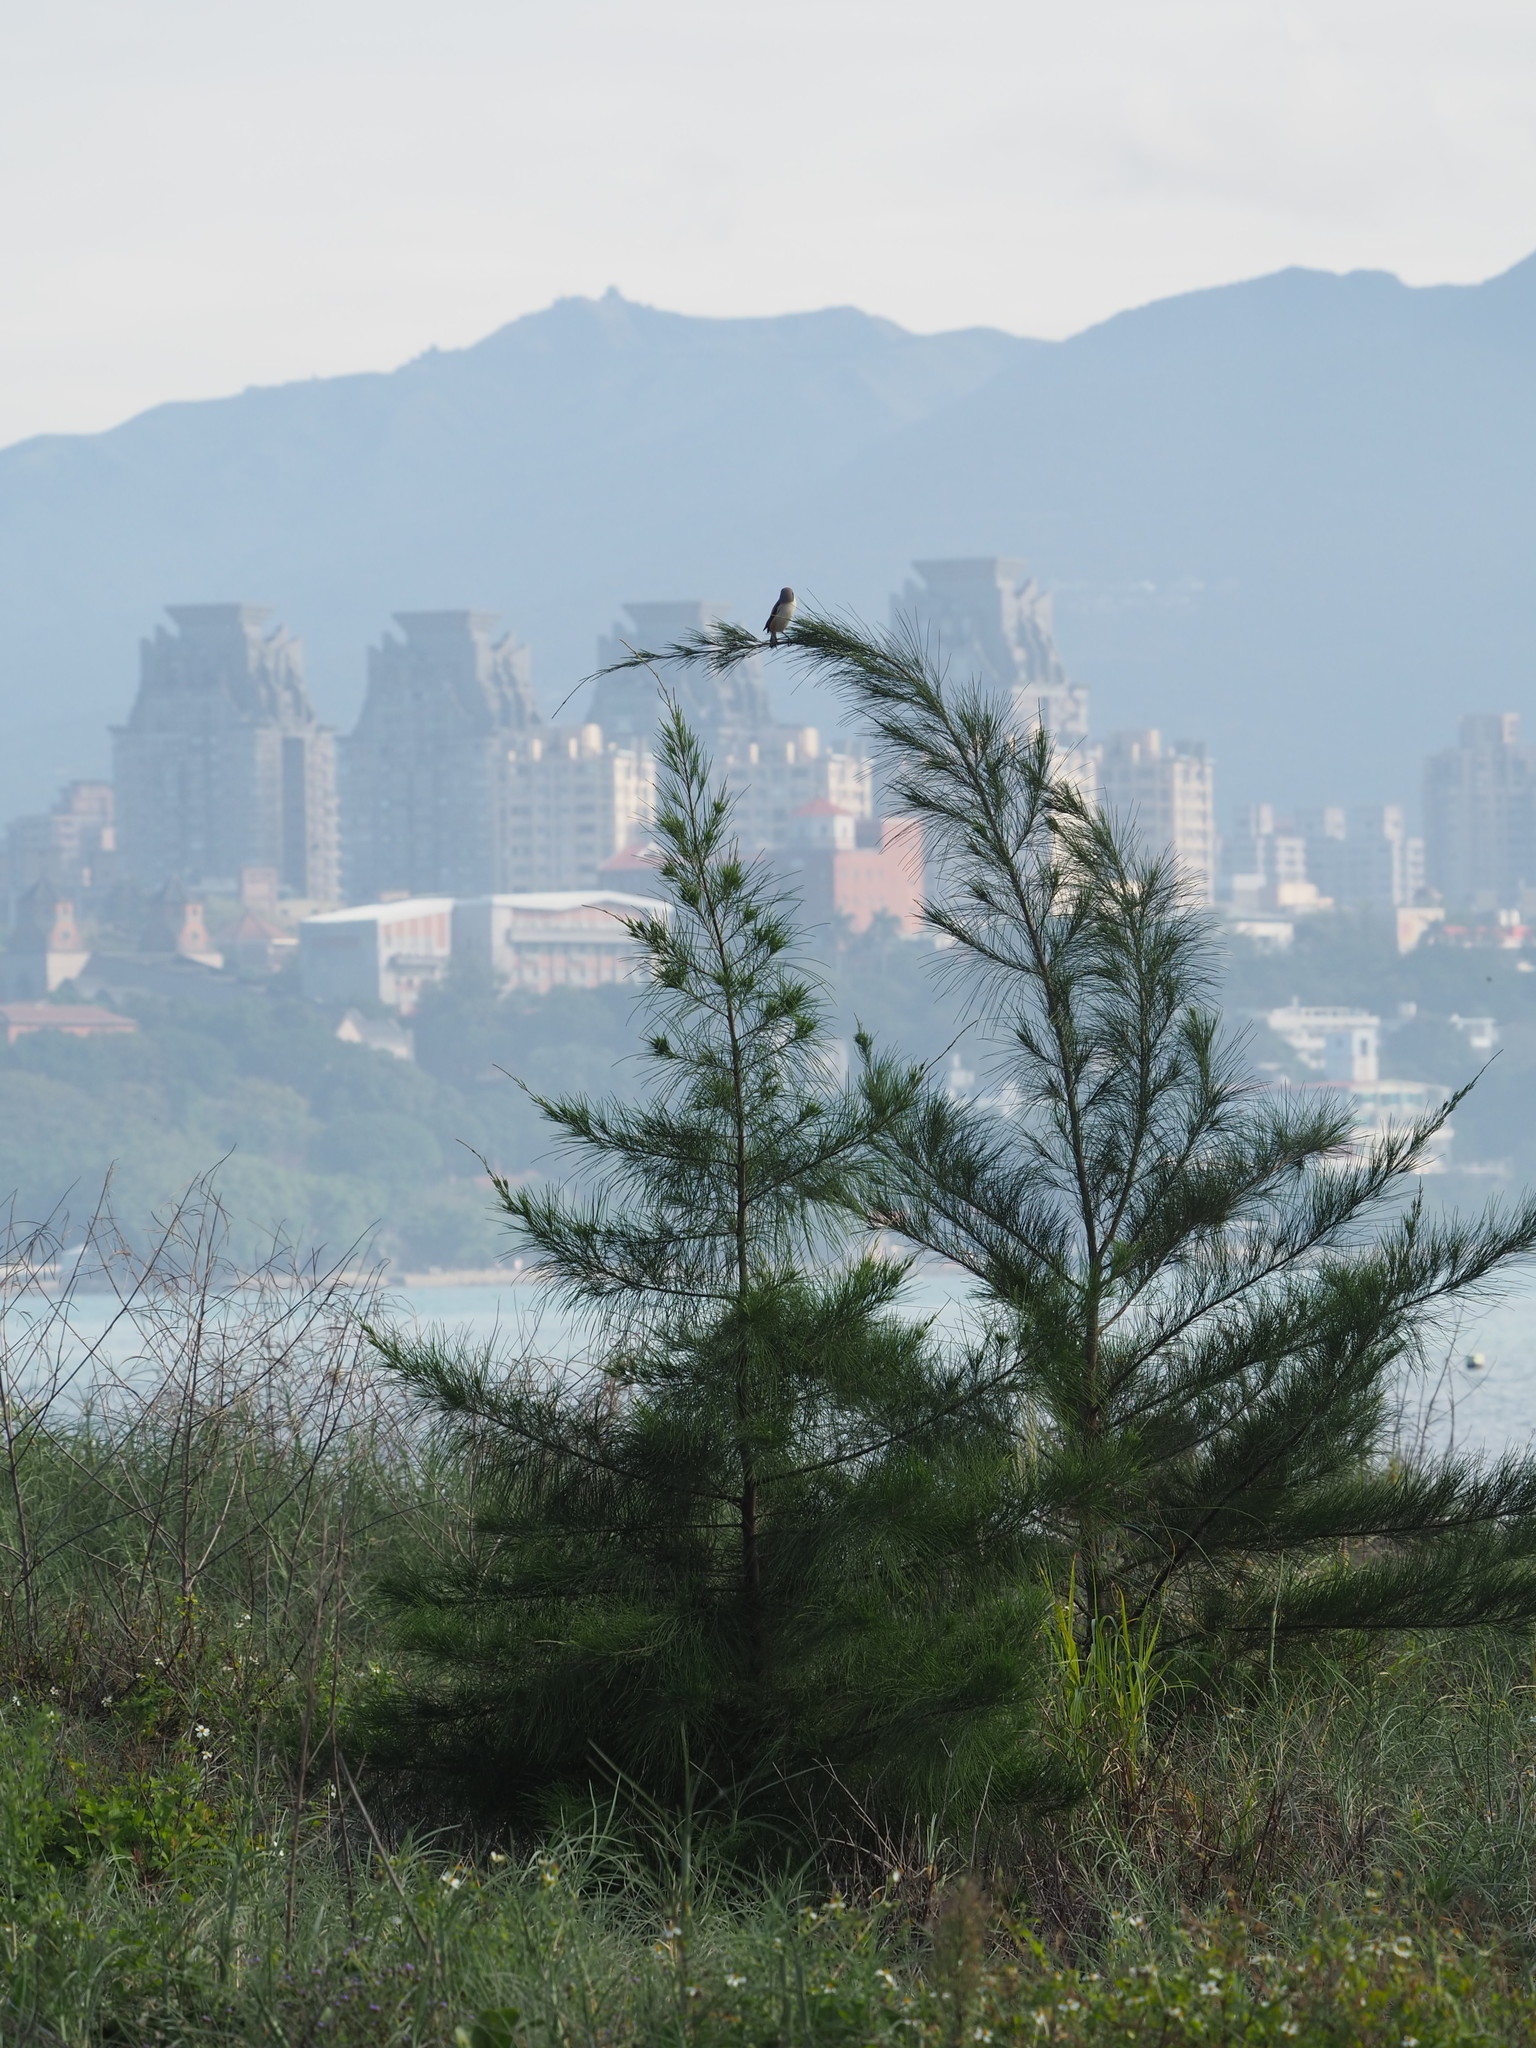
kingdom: Plantae
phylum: Tracheophyta
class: Magnoliopsida
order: Fagales
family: Casuarinaceae
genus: Casuarina
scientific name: Casuarina equisetifolia
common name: Beach sheoak
